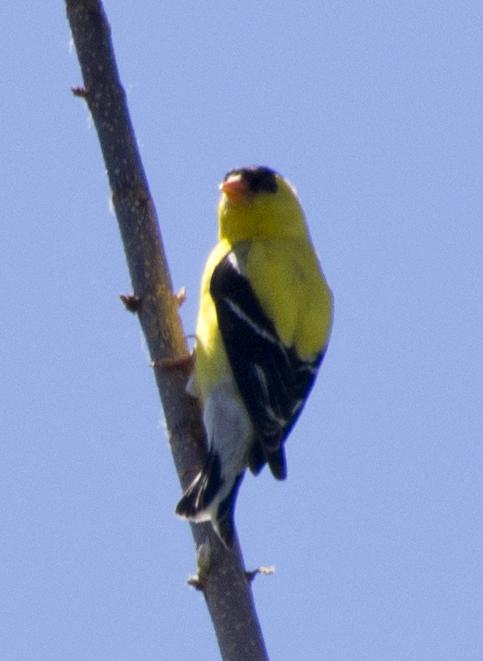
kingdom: Animalia
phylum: Chordata
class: Aves
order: Passeriformes
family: Fringillidae
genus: Spinus
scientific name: Spinus tristis
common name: American goldfinch
